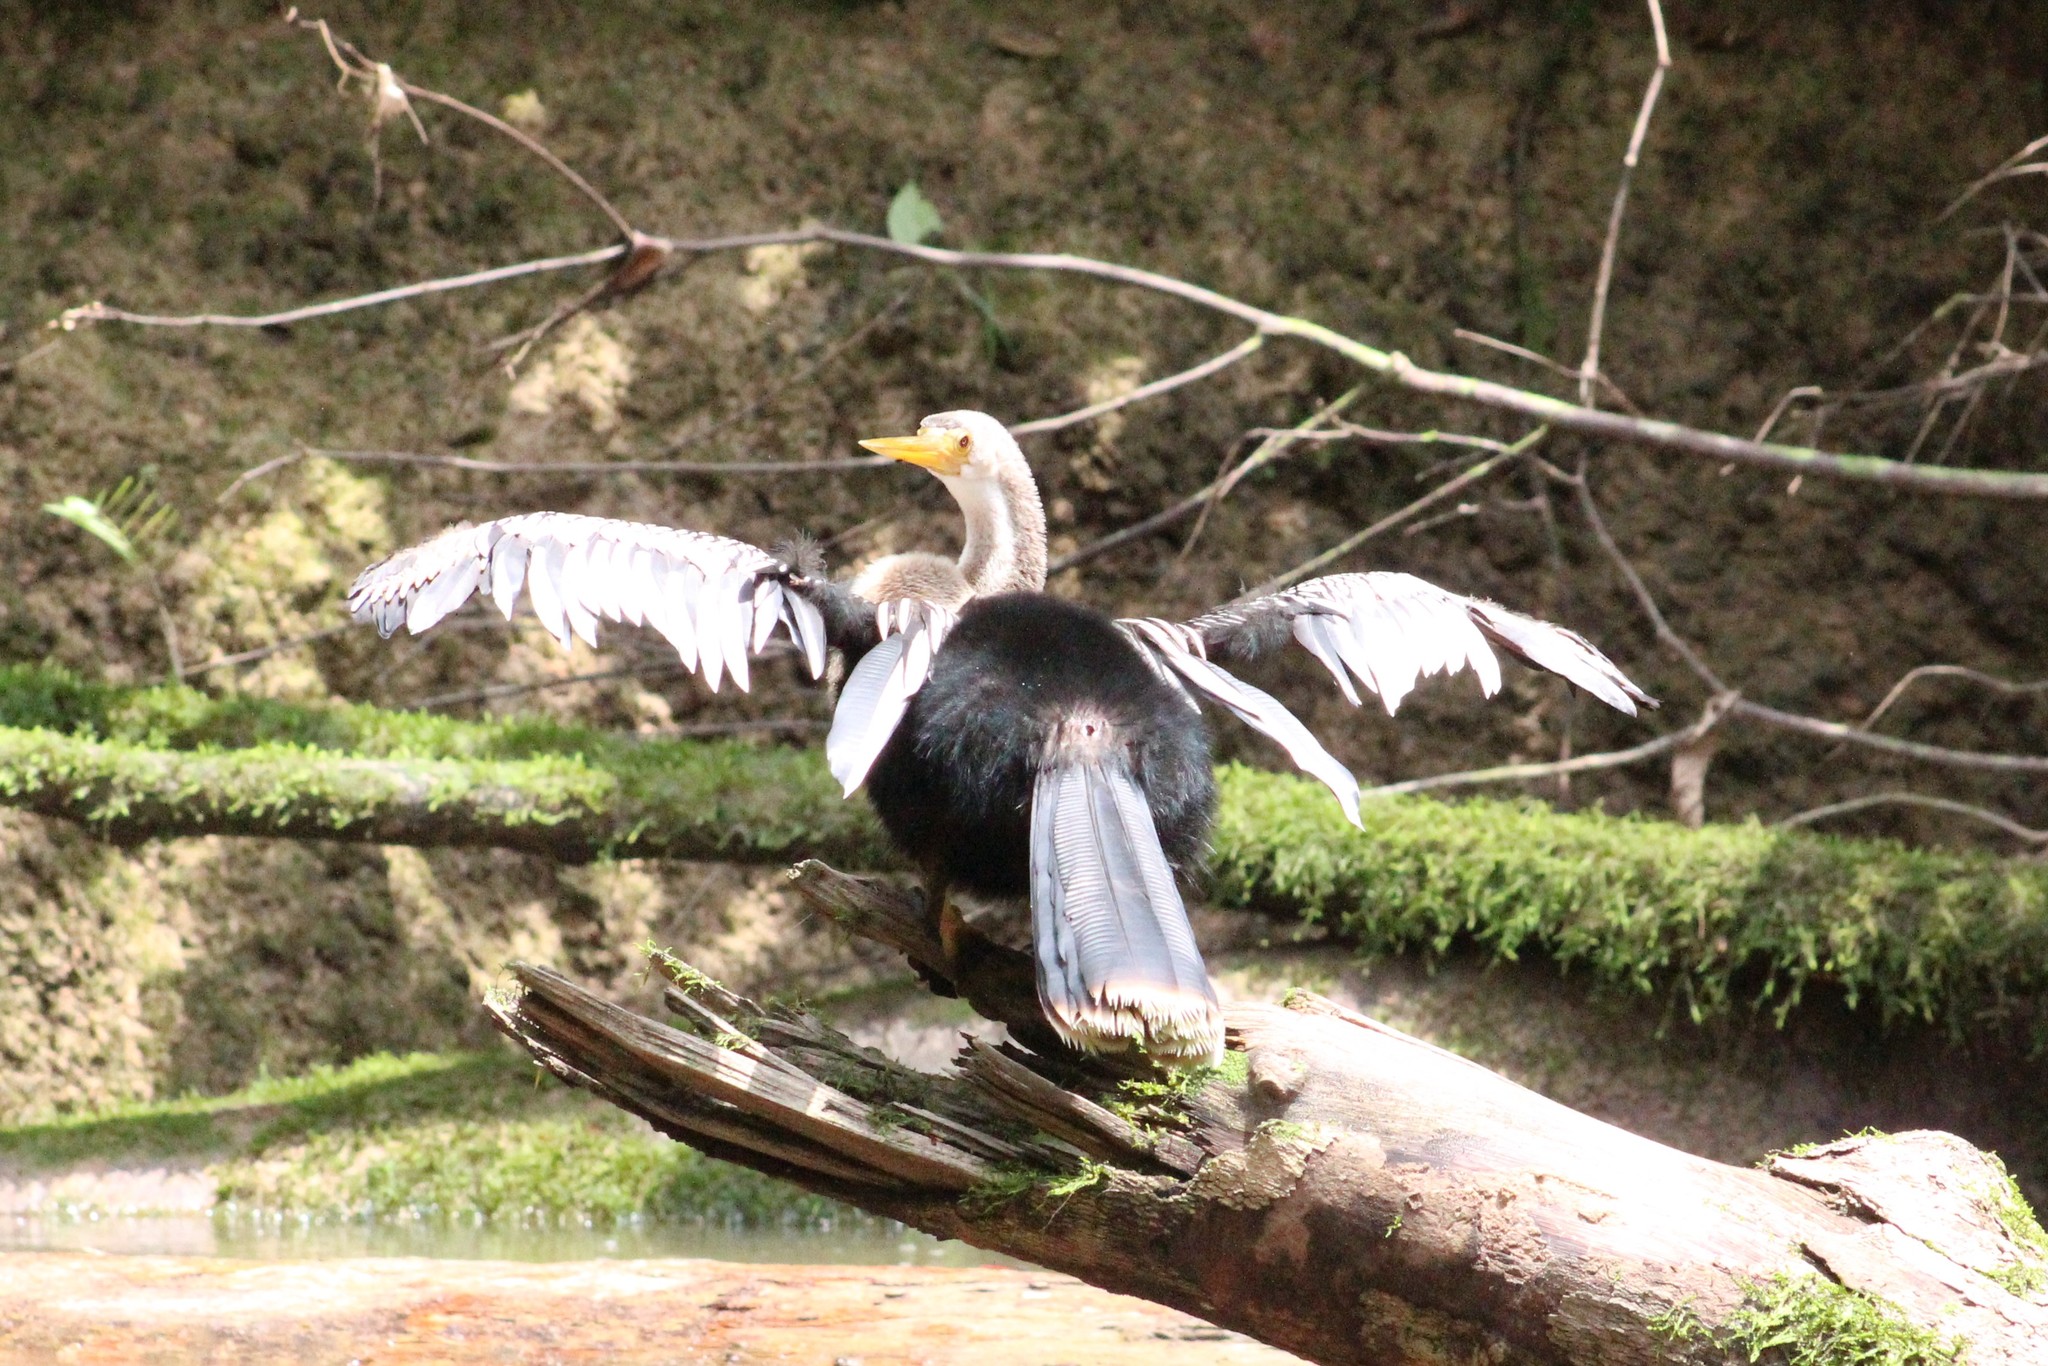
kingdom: Animalia
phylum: Chordata
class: Aves
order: Suliformes
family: Anhingidae
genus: Anhinga
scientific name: Anhinga anhinga
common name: Anhinga
